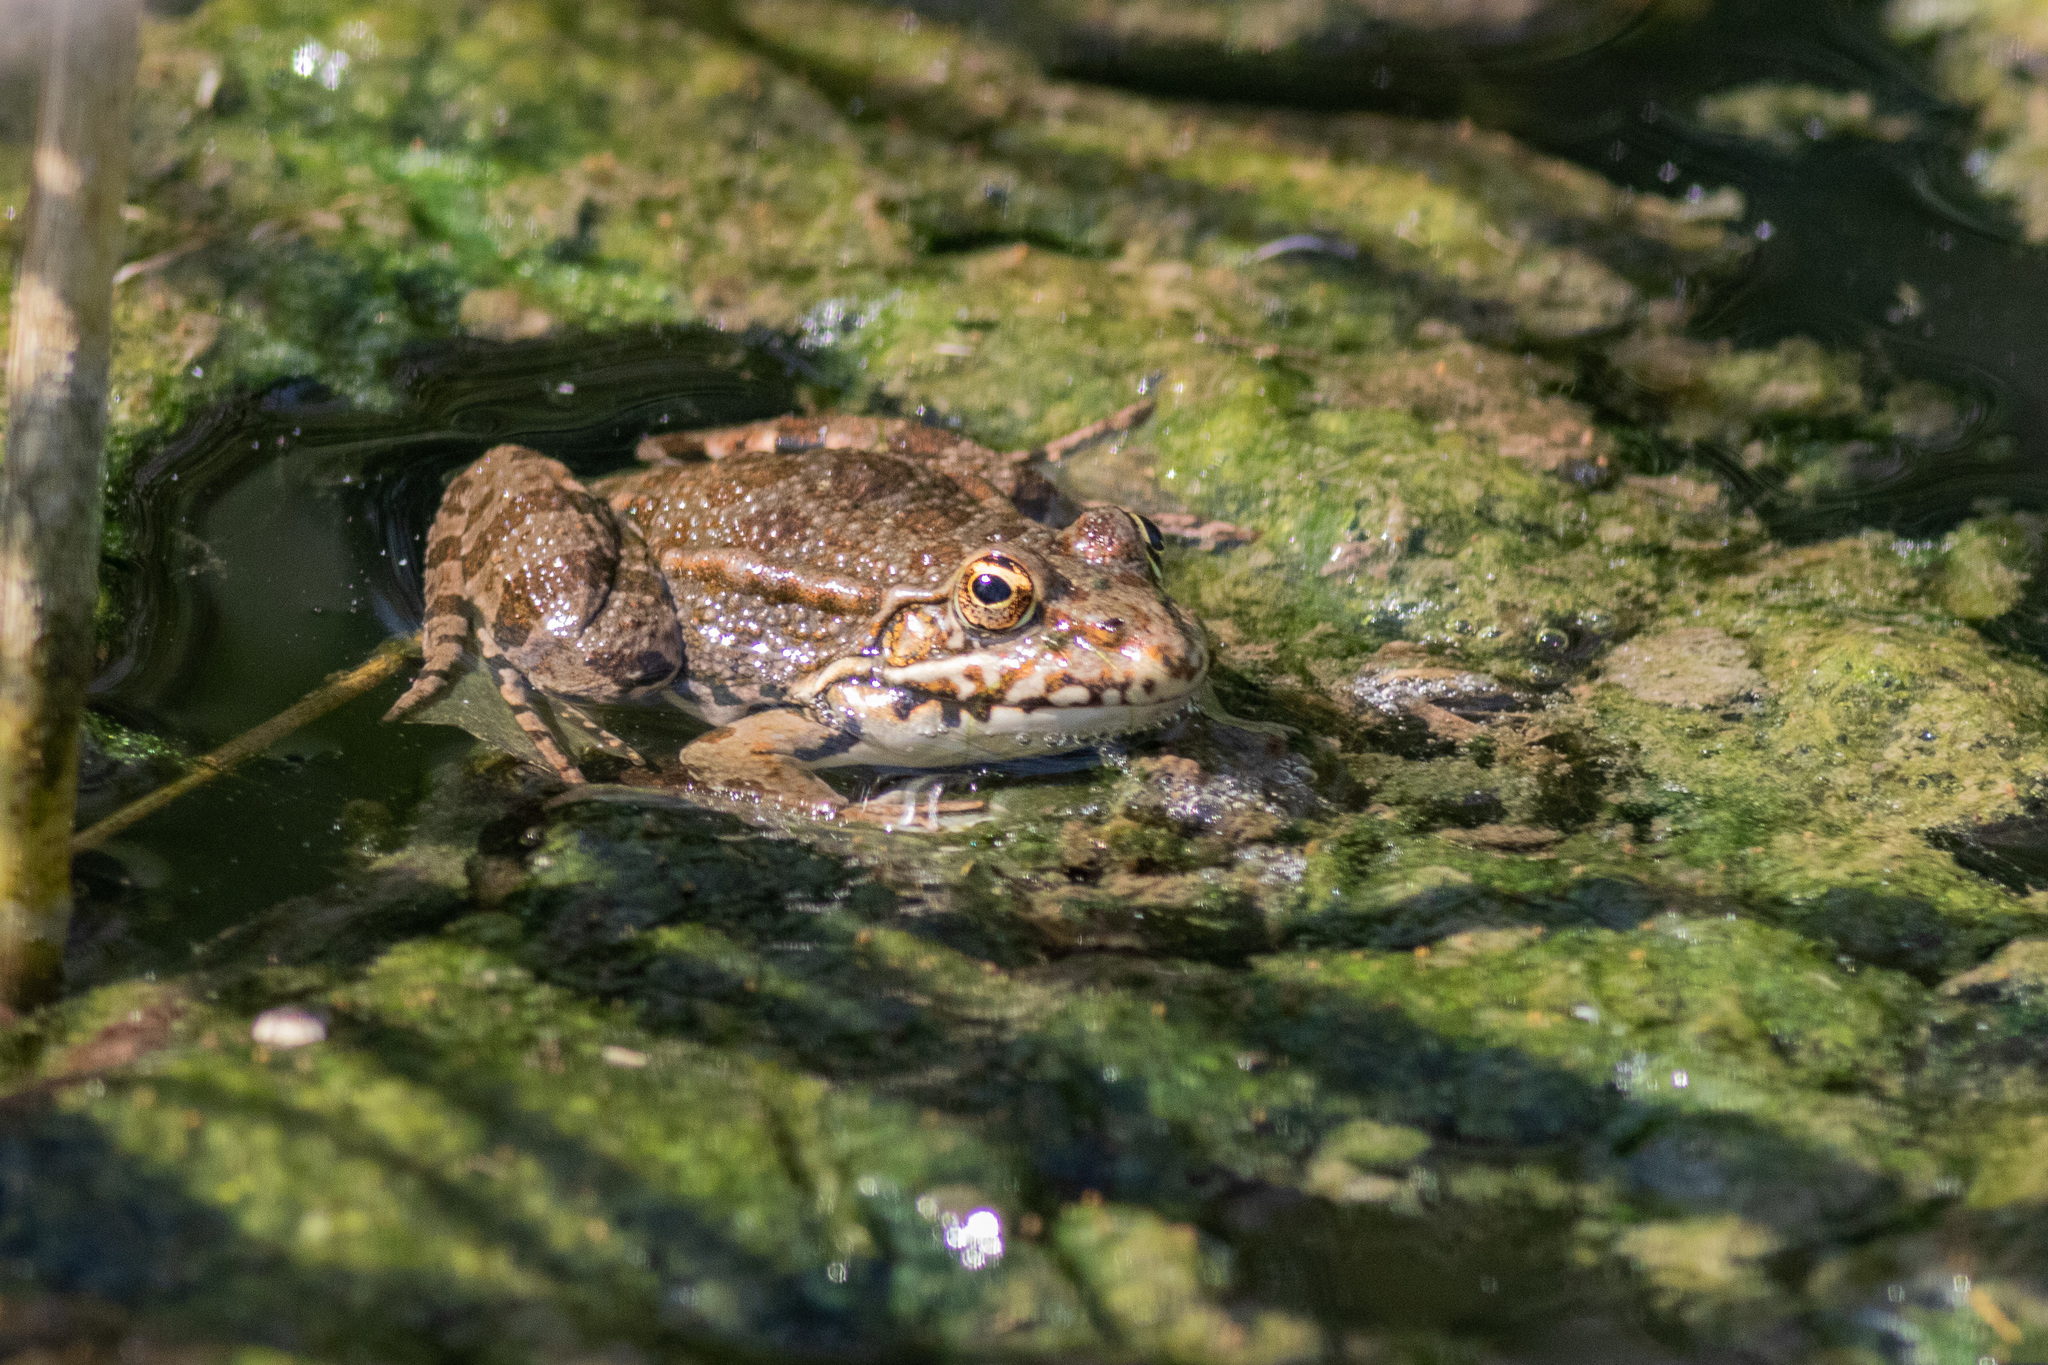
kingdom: Animalia
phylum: Chordata
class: Amphibia
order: Anura
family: Ranidae
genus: Pelophylax
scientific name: Pelophylax ridibundus
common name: Marsh frog
